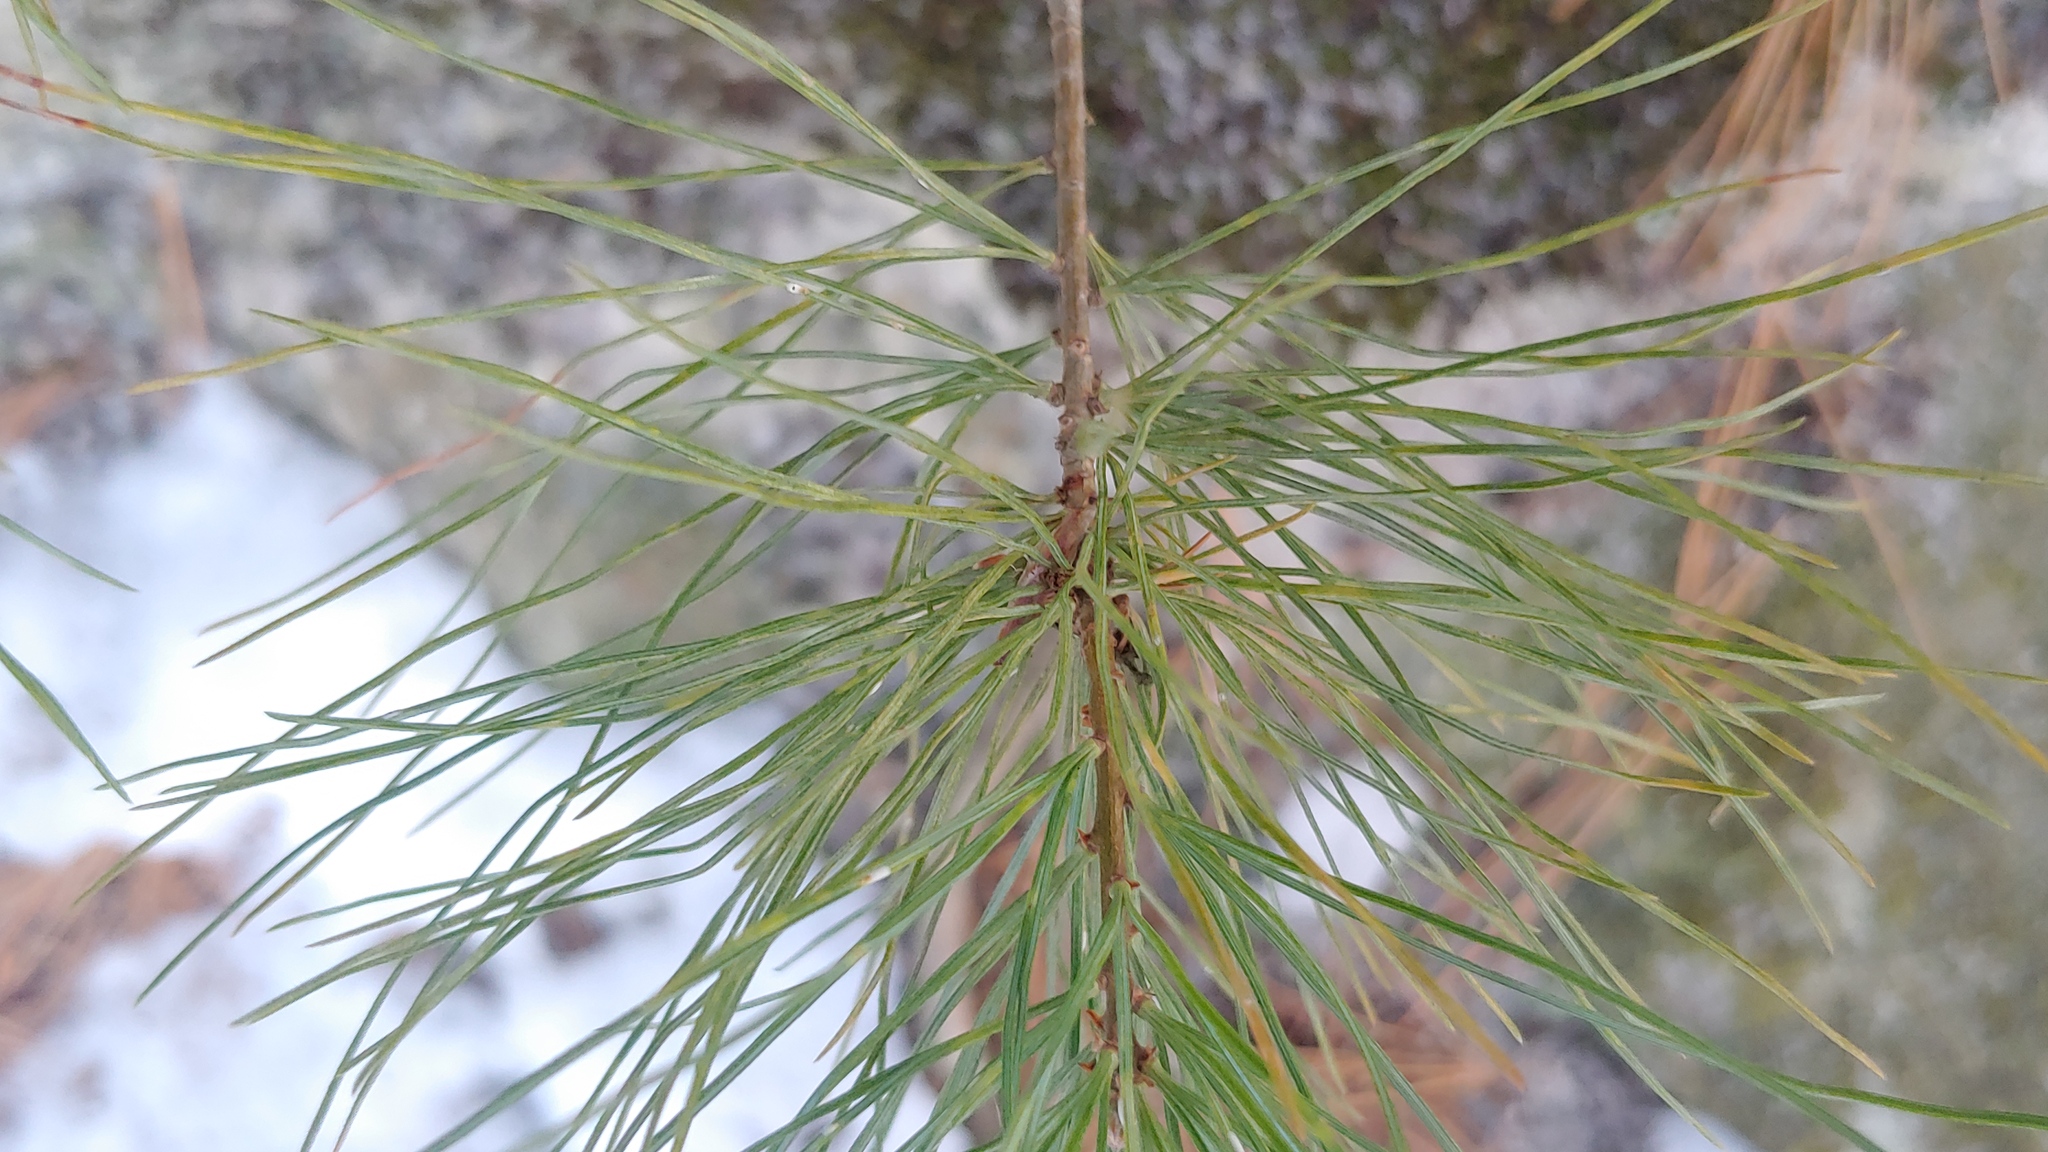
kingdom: Plantae
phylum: Tracheophyta
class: Pinopsida
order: Pinales
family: Pinaceae
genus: Pinus
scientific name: Pinus strobus
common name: Weymouth pine
